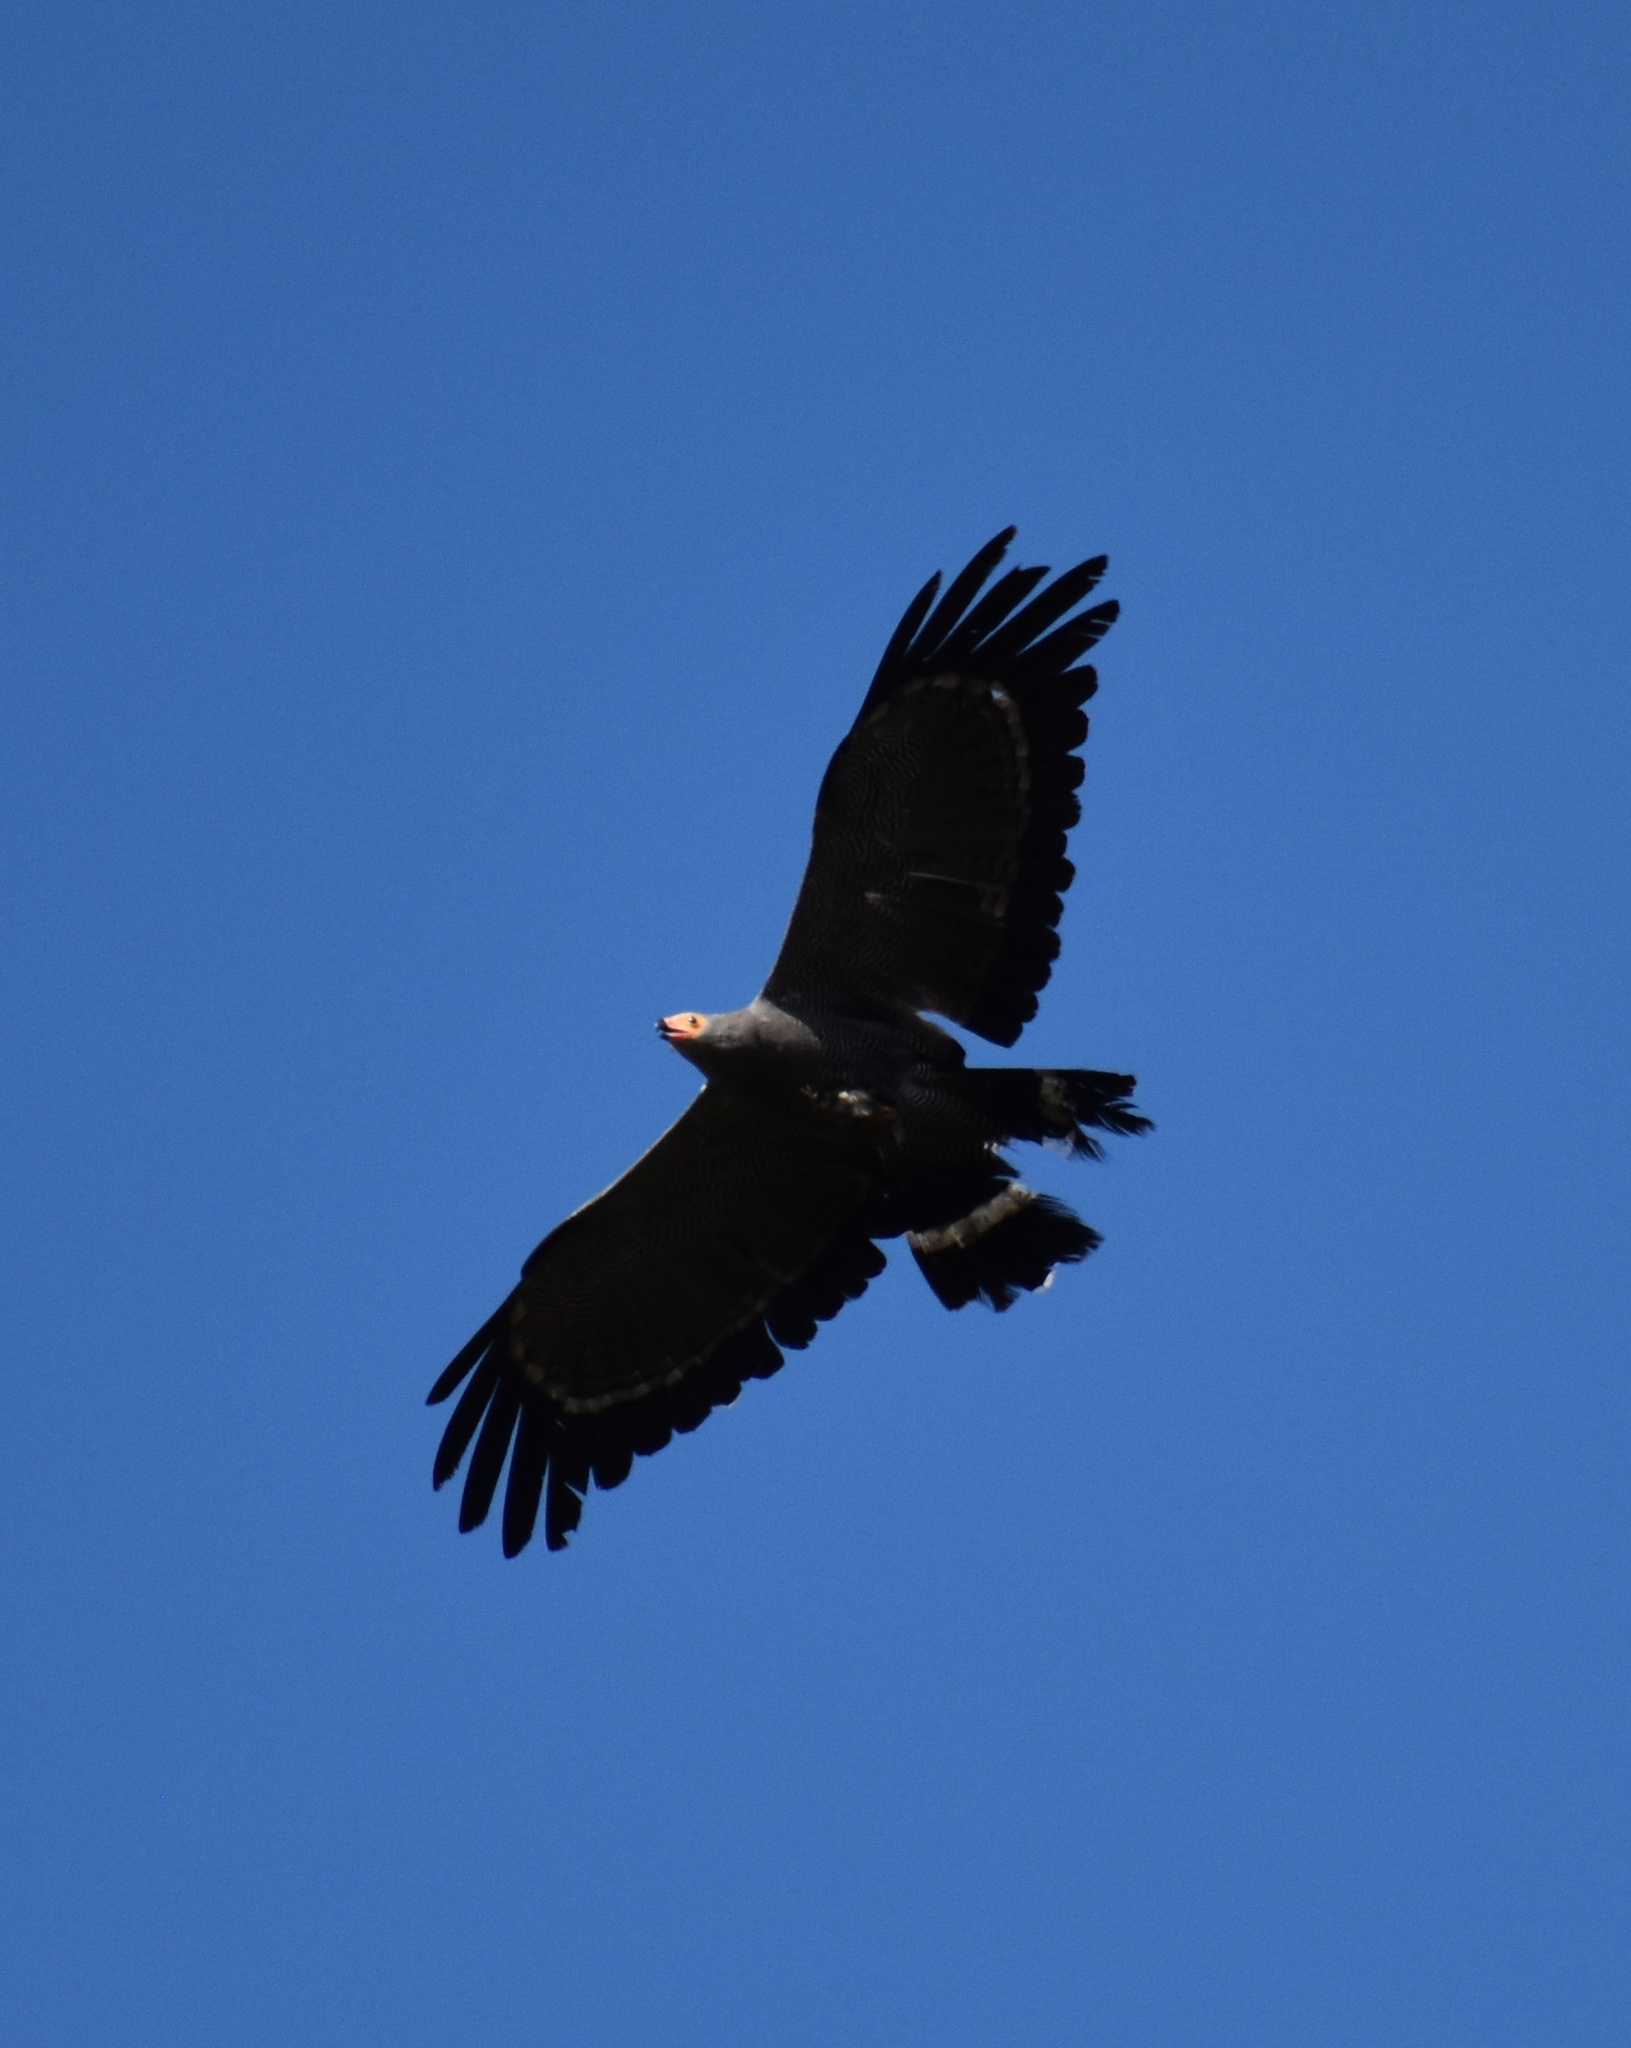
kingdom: Animalia
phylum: Chordata
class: Aves
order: Accipitriformes
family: Accipitridae
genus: Polyboroides
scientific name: Polyboroides typus
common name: African harrier-hawk
